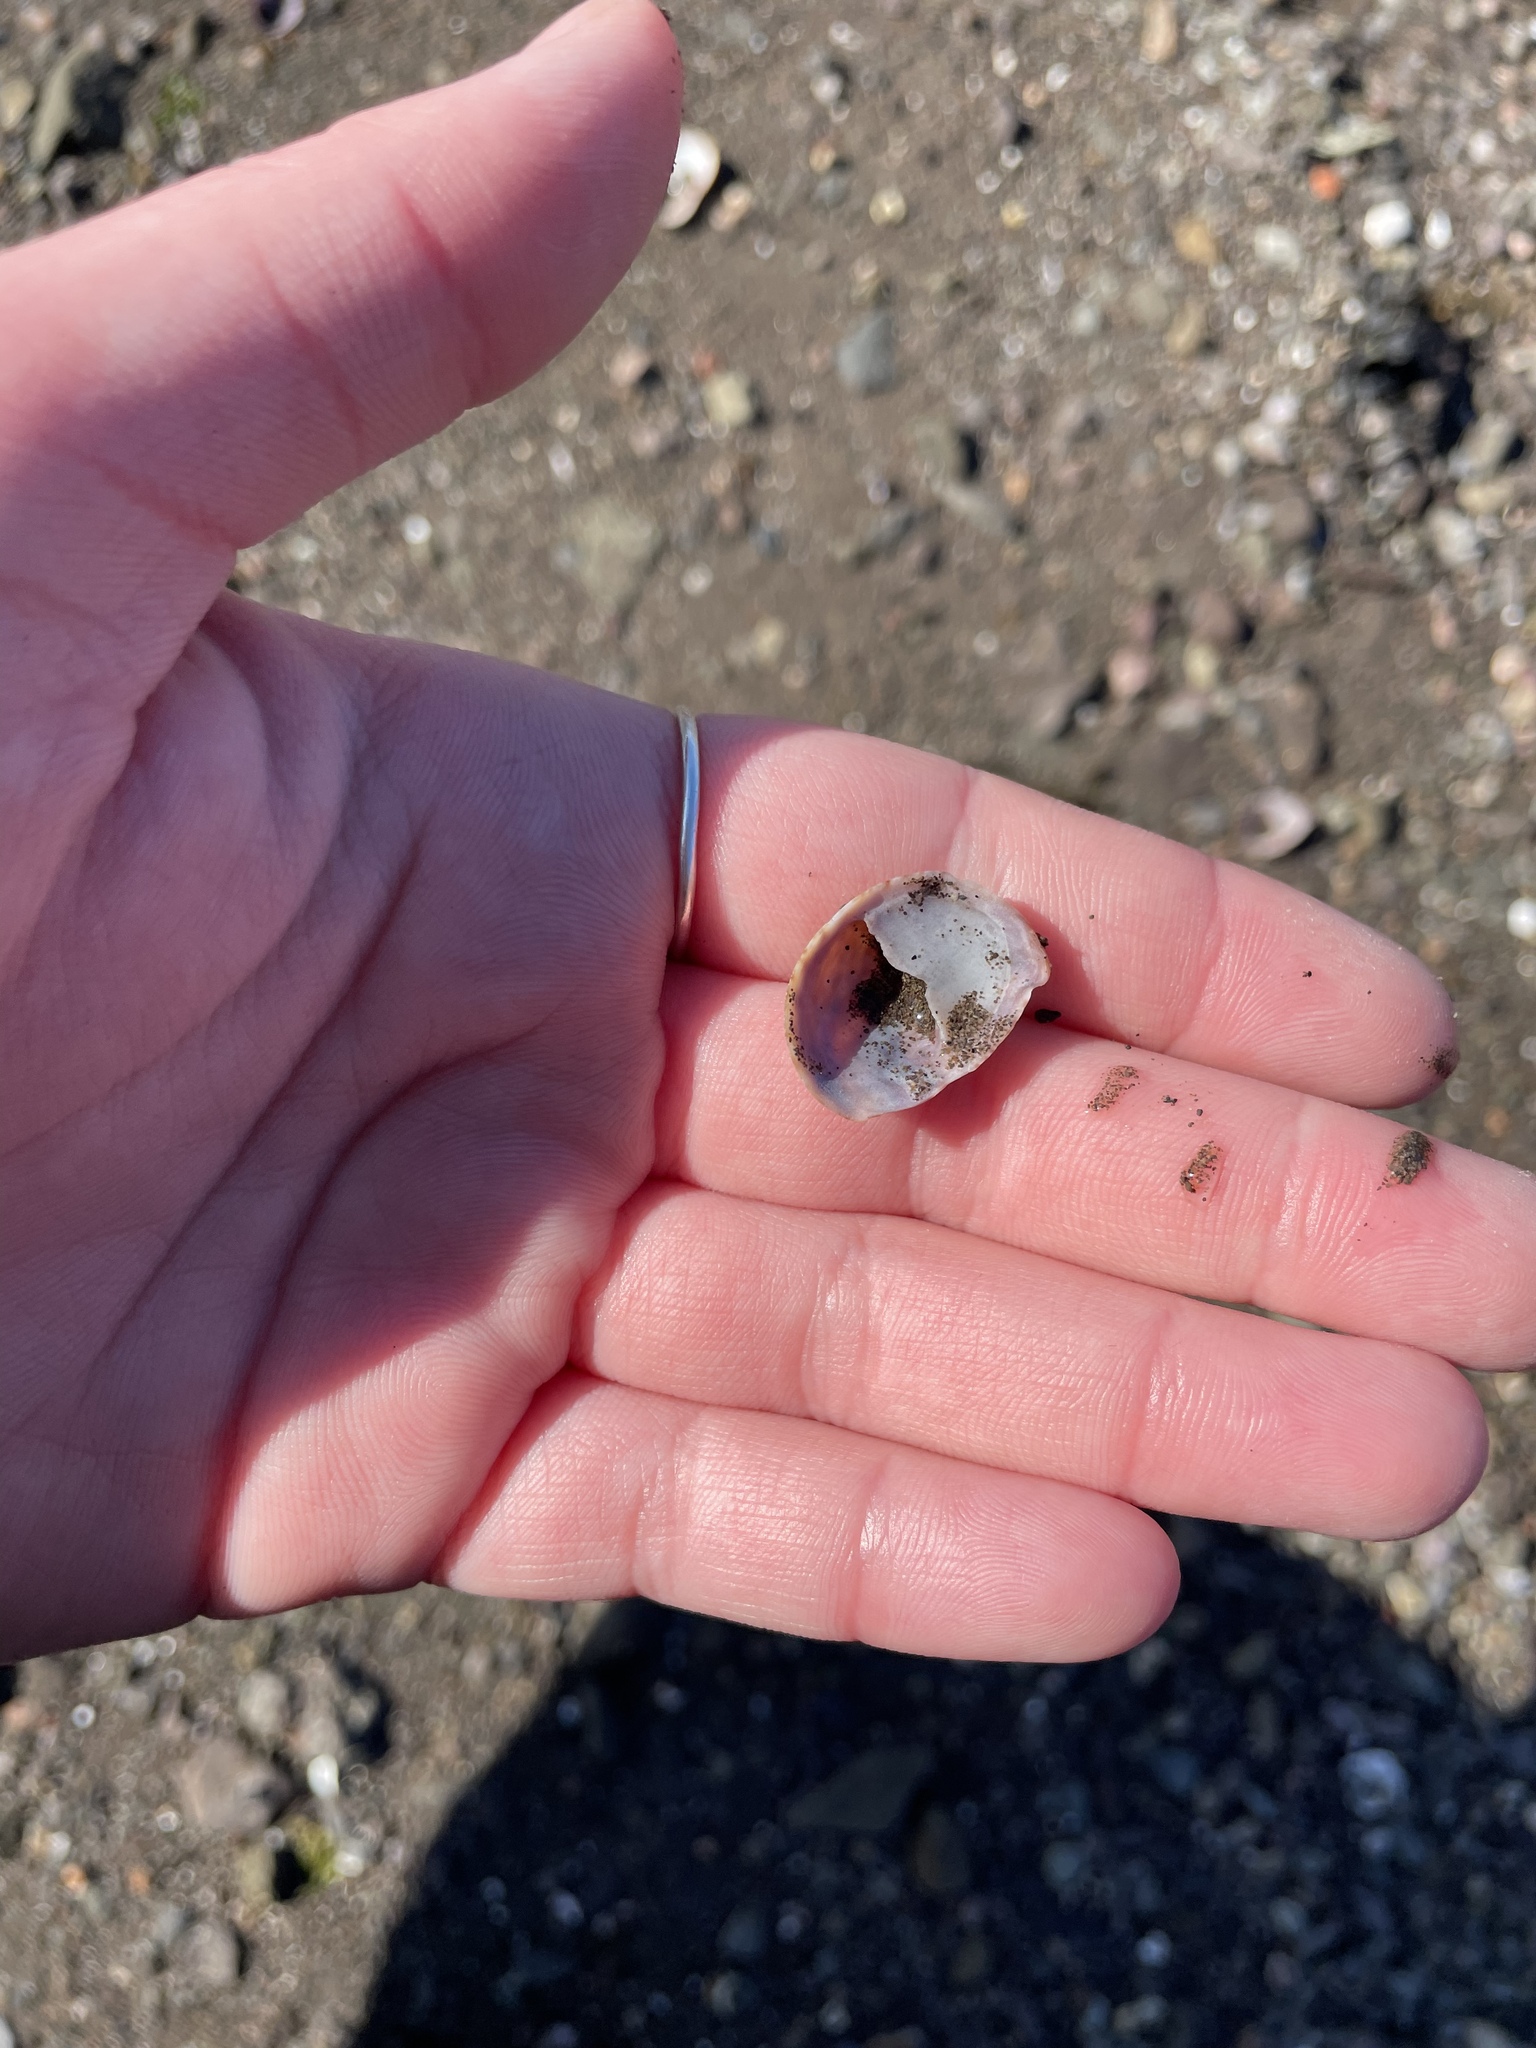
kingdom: Animalia
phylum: Mollusca
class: Gastropoda
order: Littorinimorpha
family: Calyptraeidae
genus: Crepidula
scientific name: Crepidula fornicata
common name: Slipper limpet
